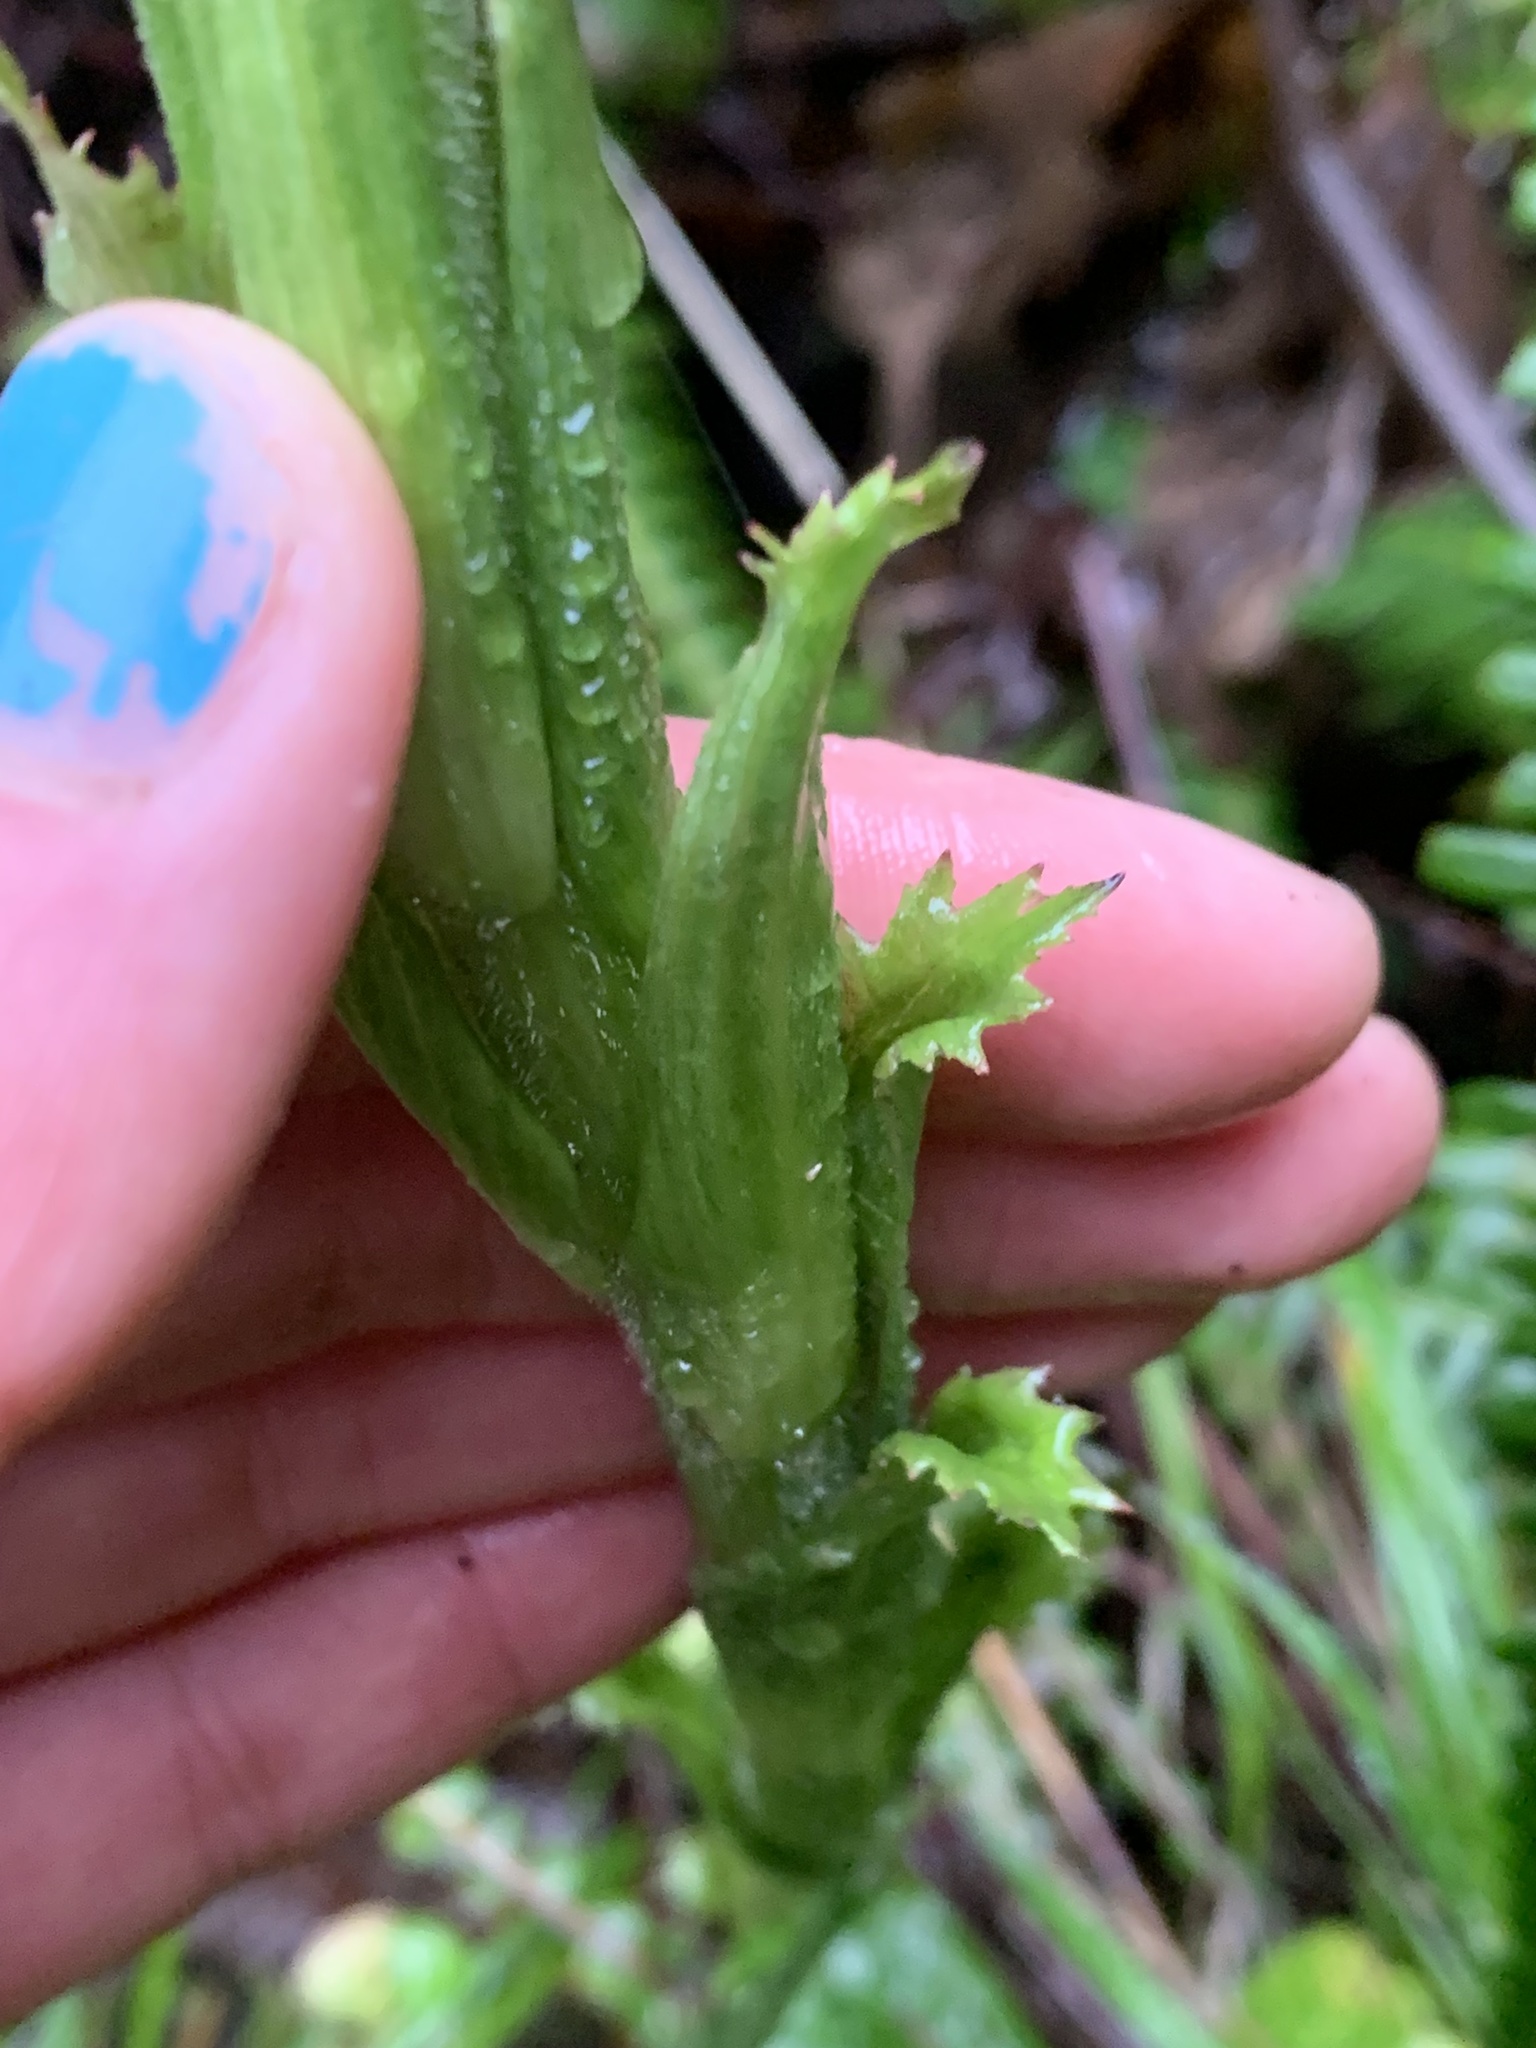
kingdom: Plantae
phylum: Tracheophyta
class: Magnoliopsida
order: Asterales
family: Asteraceae
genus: Petasites
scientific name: Petasites frigidus
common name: Arctic butterbur
